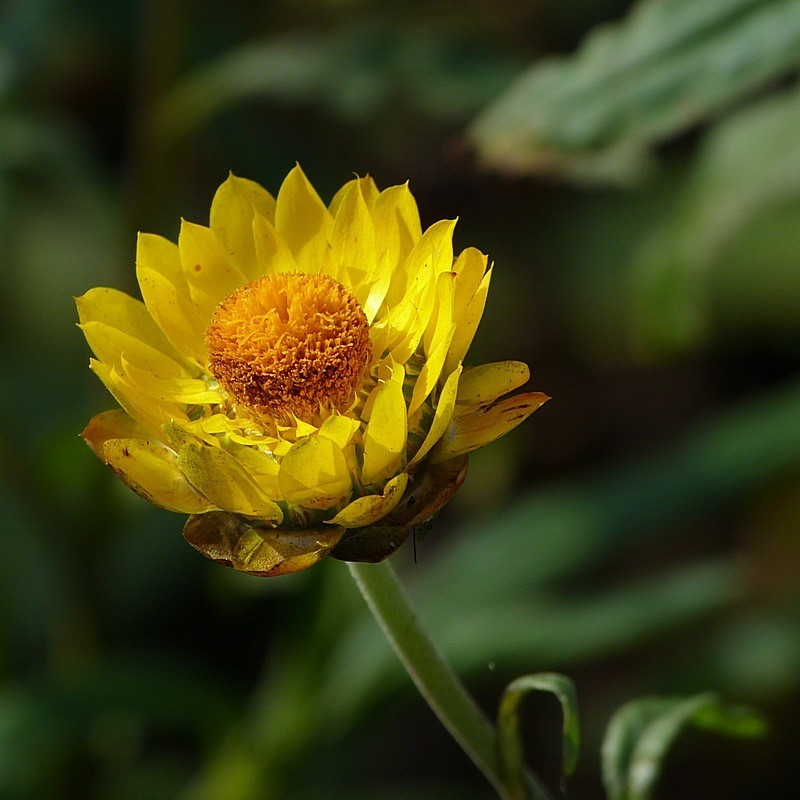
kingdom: Plantae
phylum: Tracheophyta
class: Magnoliopsida
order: Asterales
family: Asteraceae
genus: Xerochrysum
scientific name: Xerochrysum bracteatum
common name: Bracted strawflower
